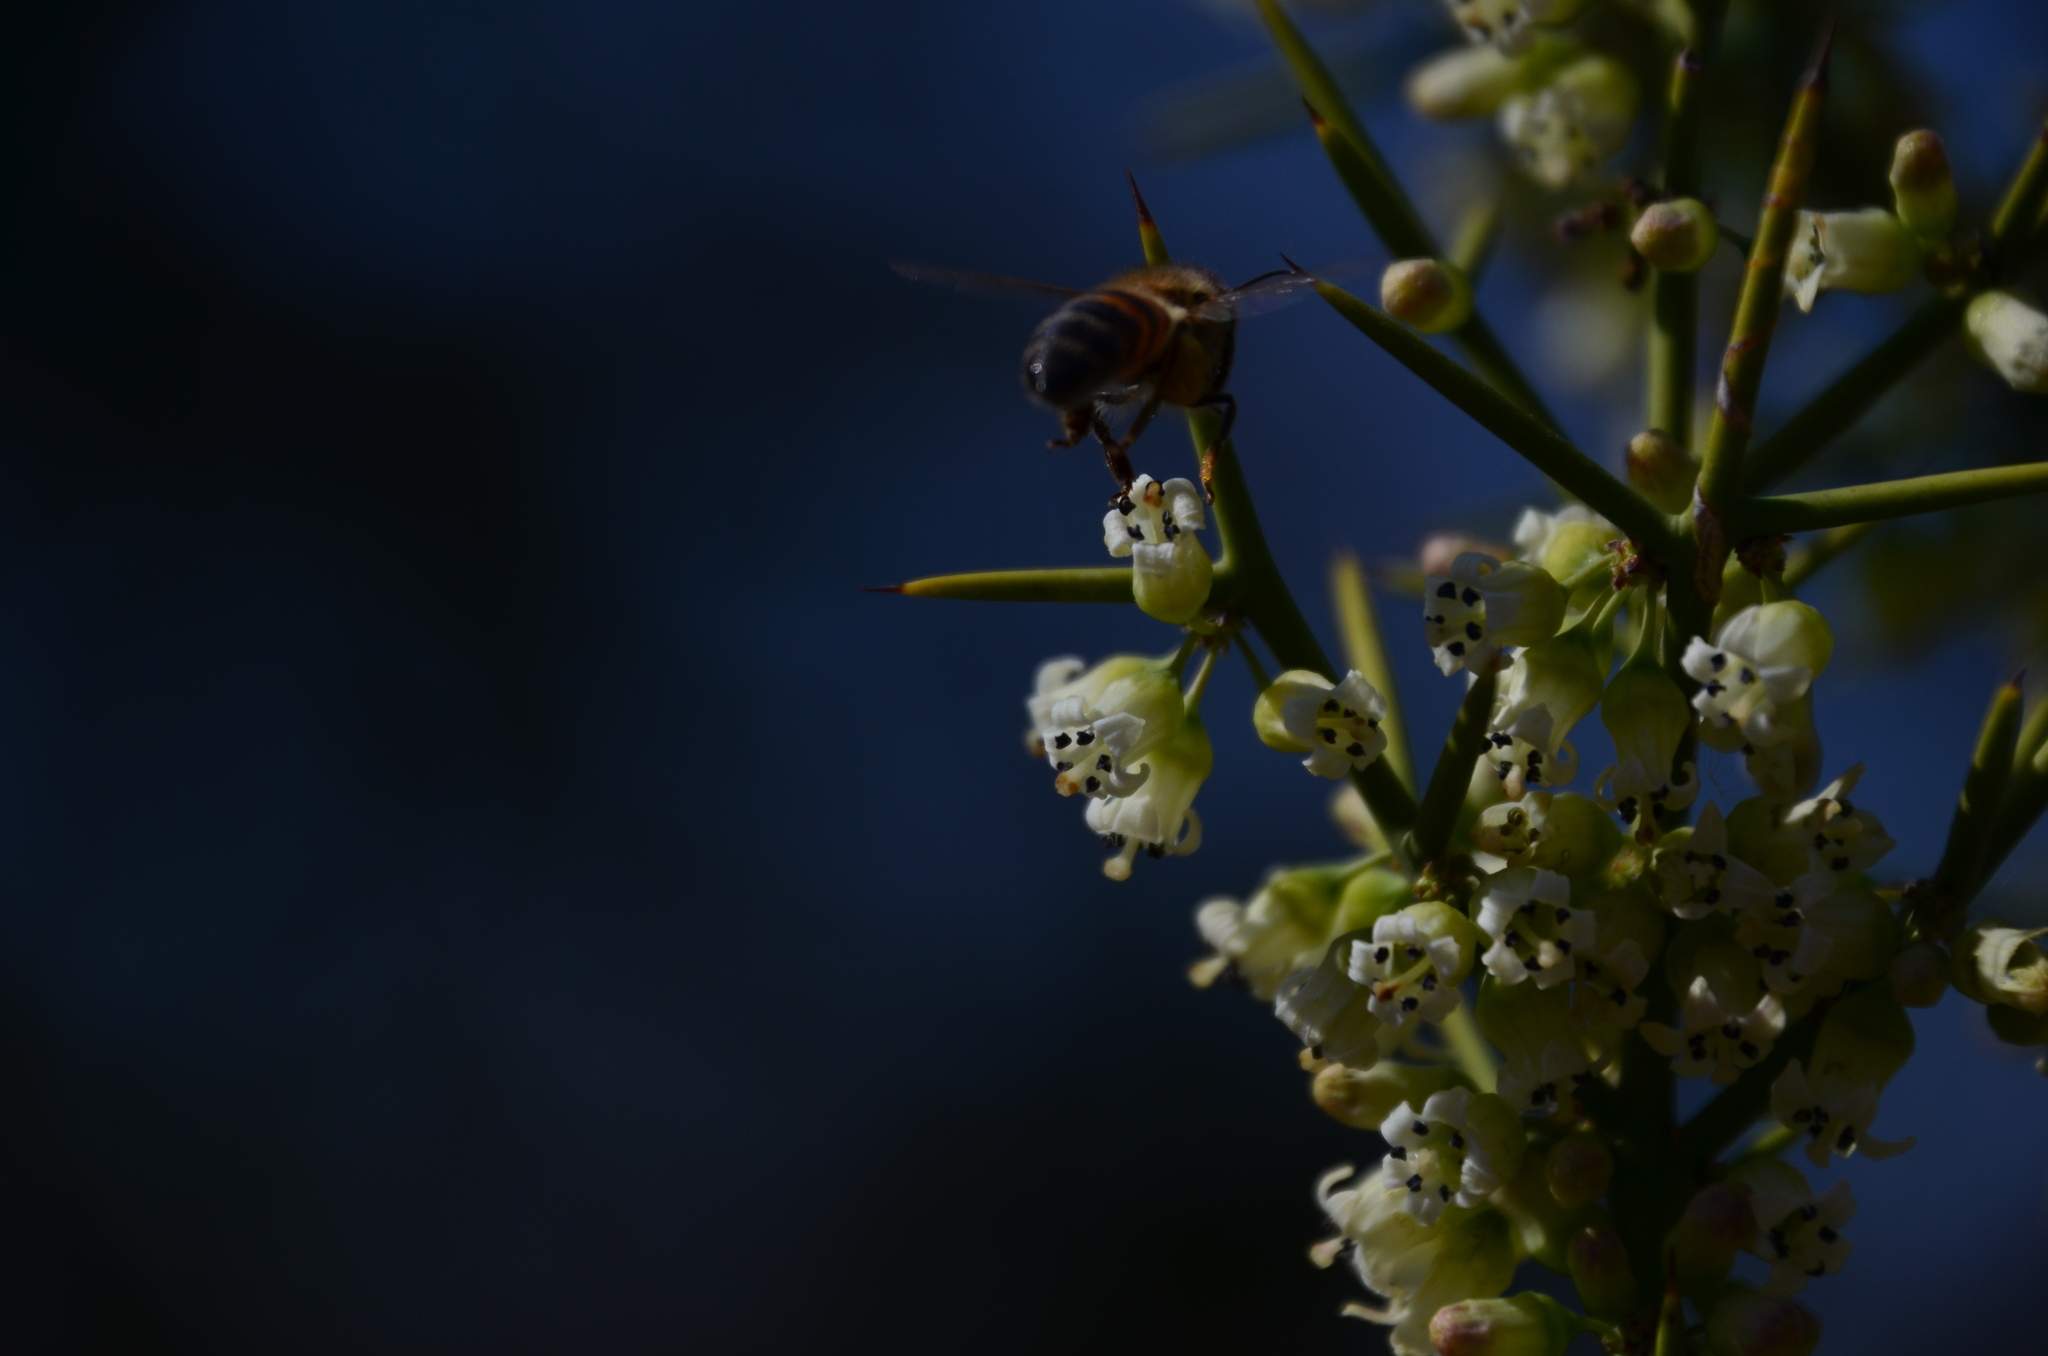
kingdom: Animalia
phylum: Arthropoda
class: Insecta
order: Hymenoptera
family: Apidae
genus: Apis
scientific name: Apis mellifera
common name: Honey bee
